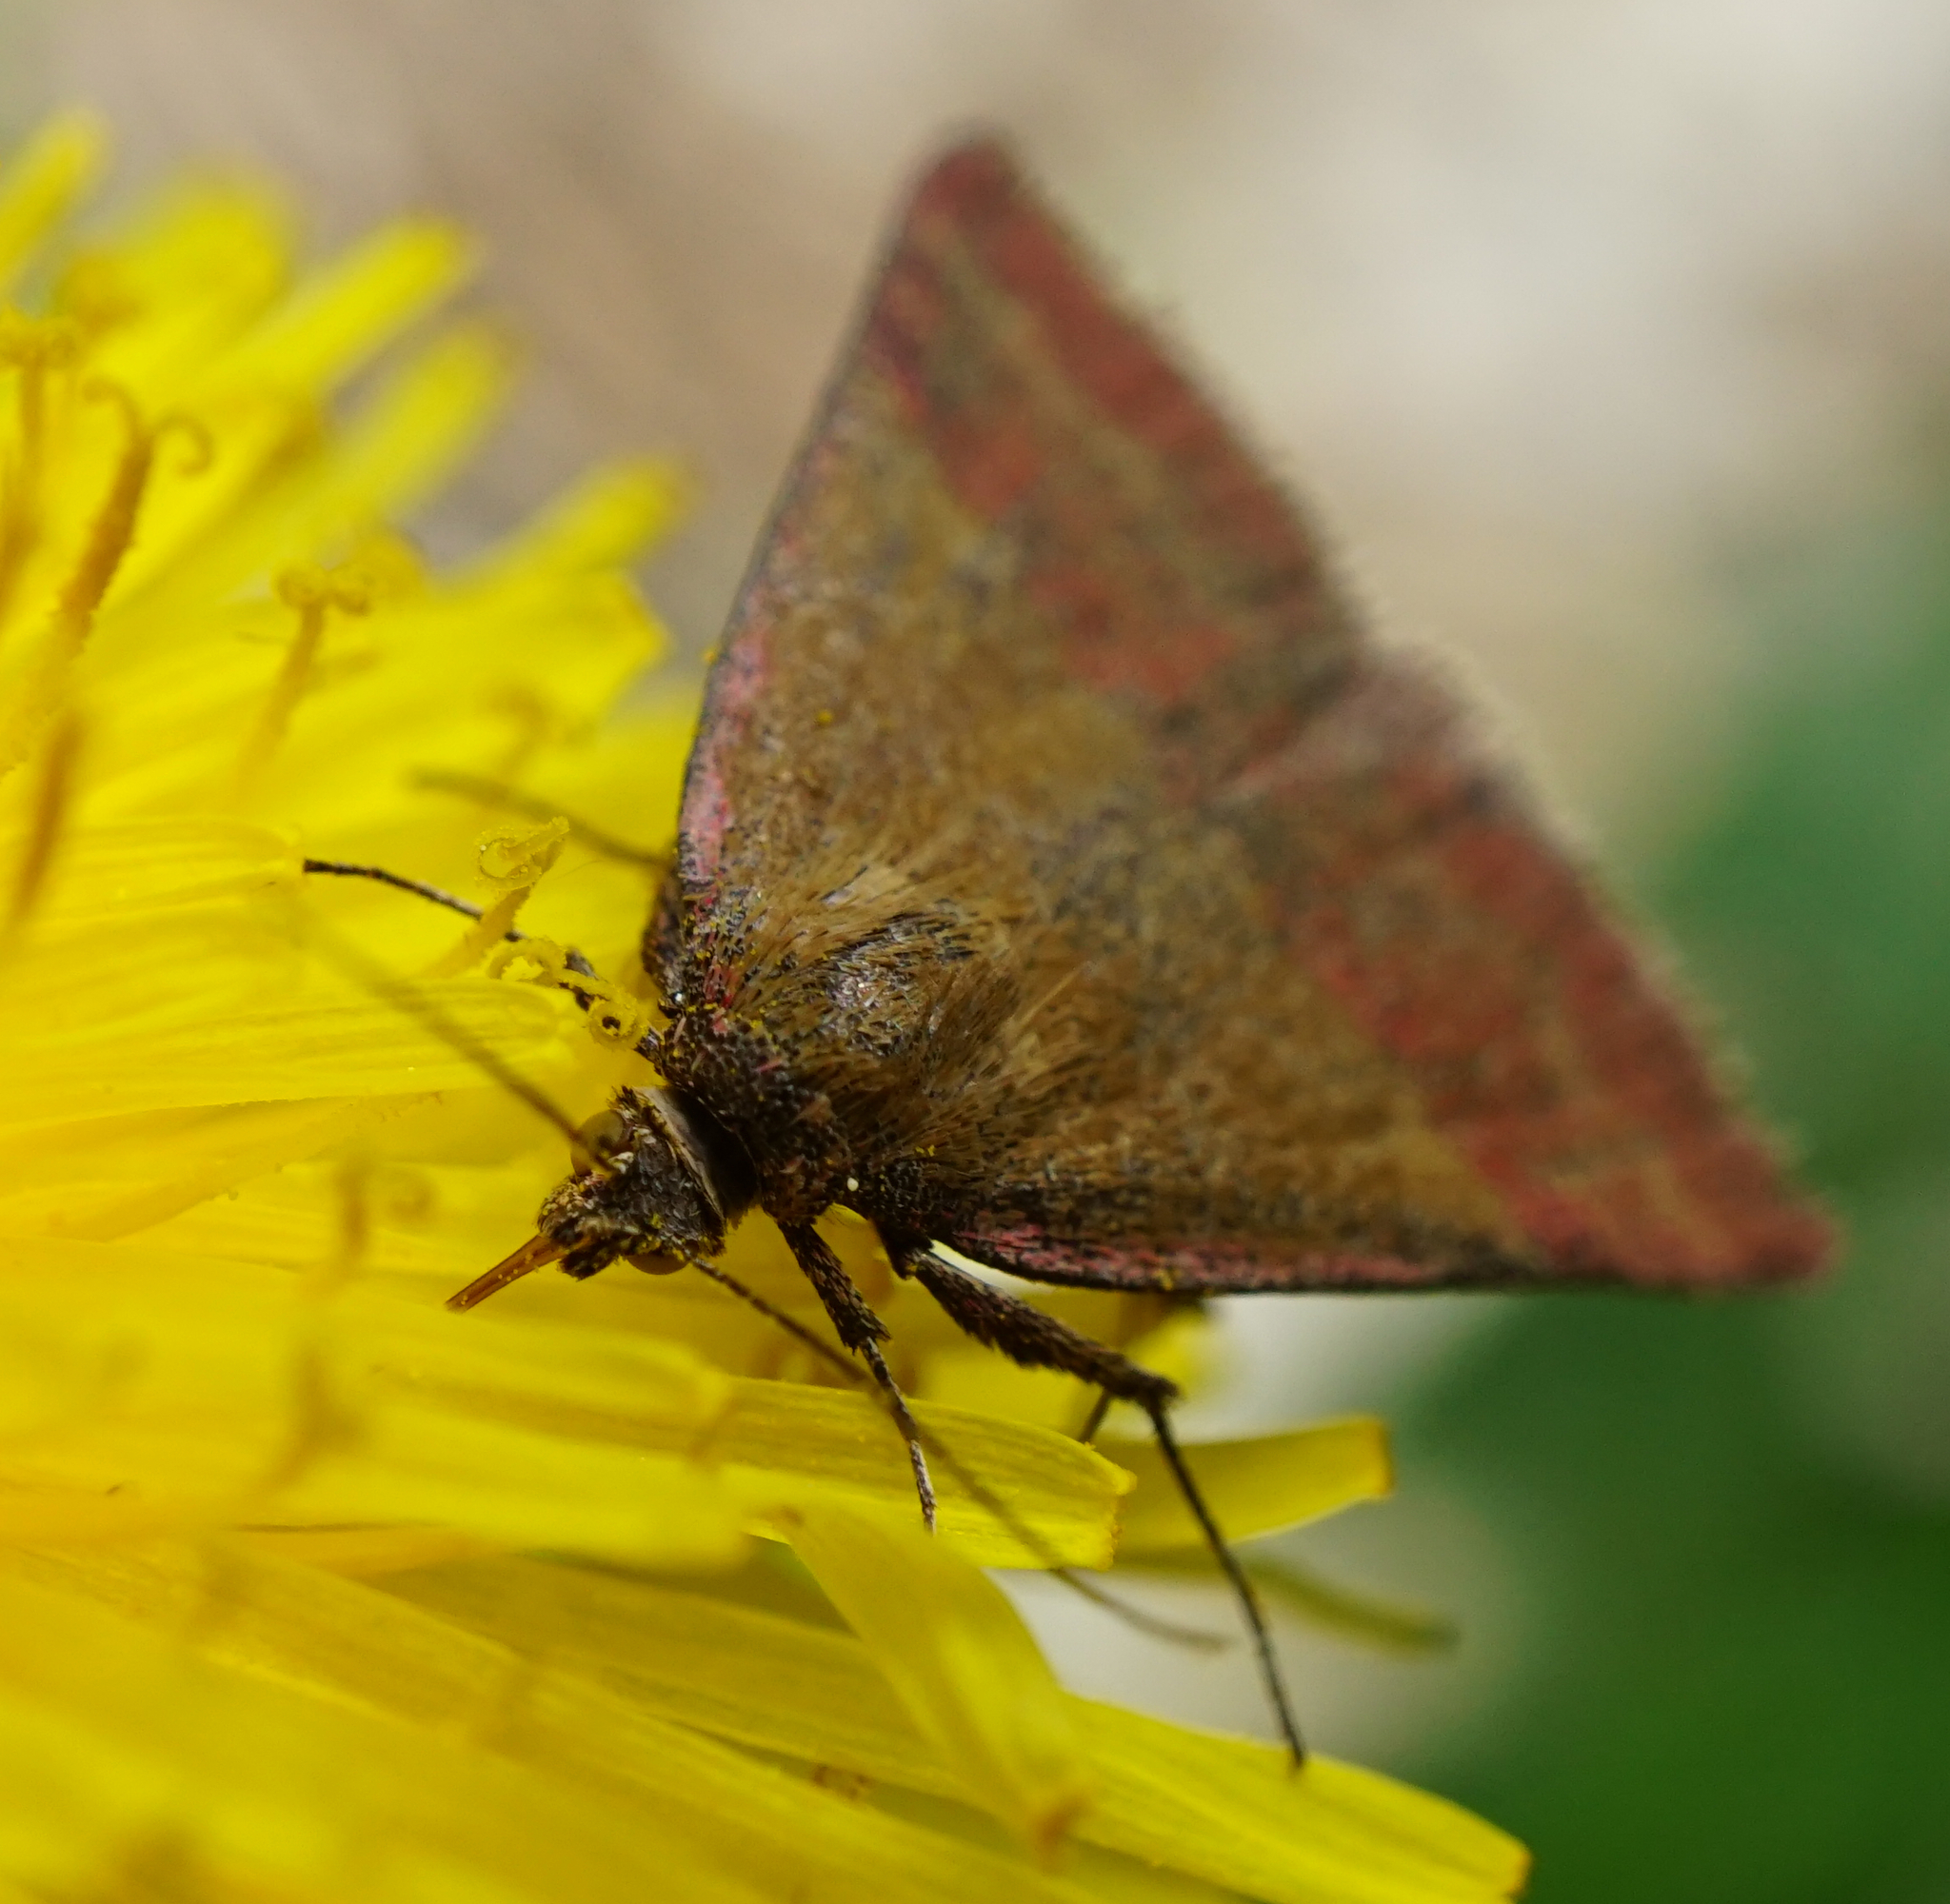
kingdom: Animalia
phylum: Arthropoda
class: Insecta
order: Lepidoptera
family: Erebidae
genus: Phytometra
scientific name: Phytometra viridaria
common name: Small purple-barred
